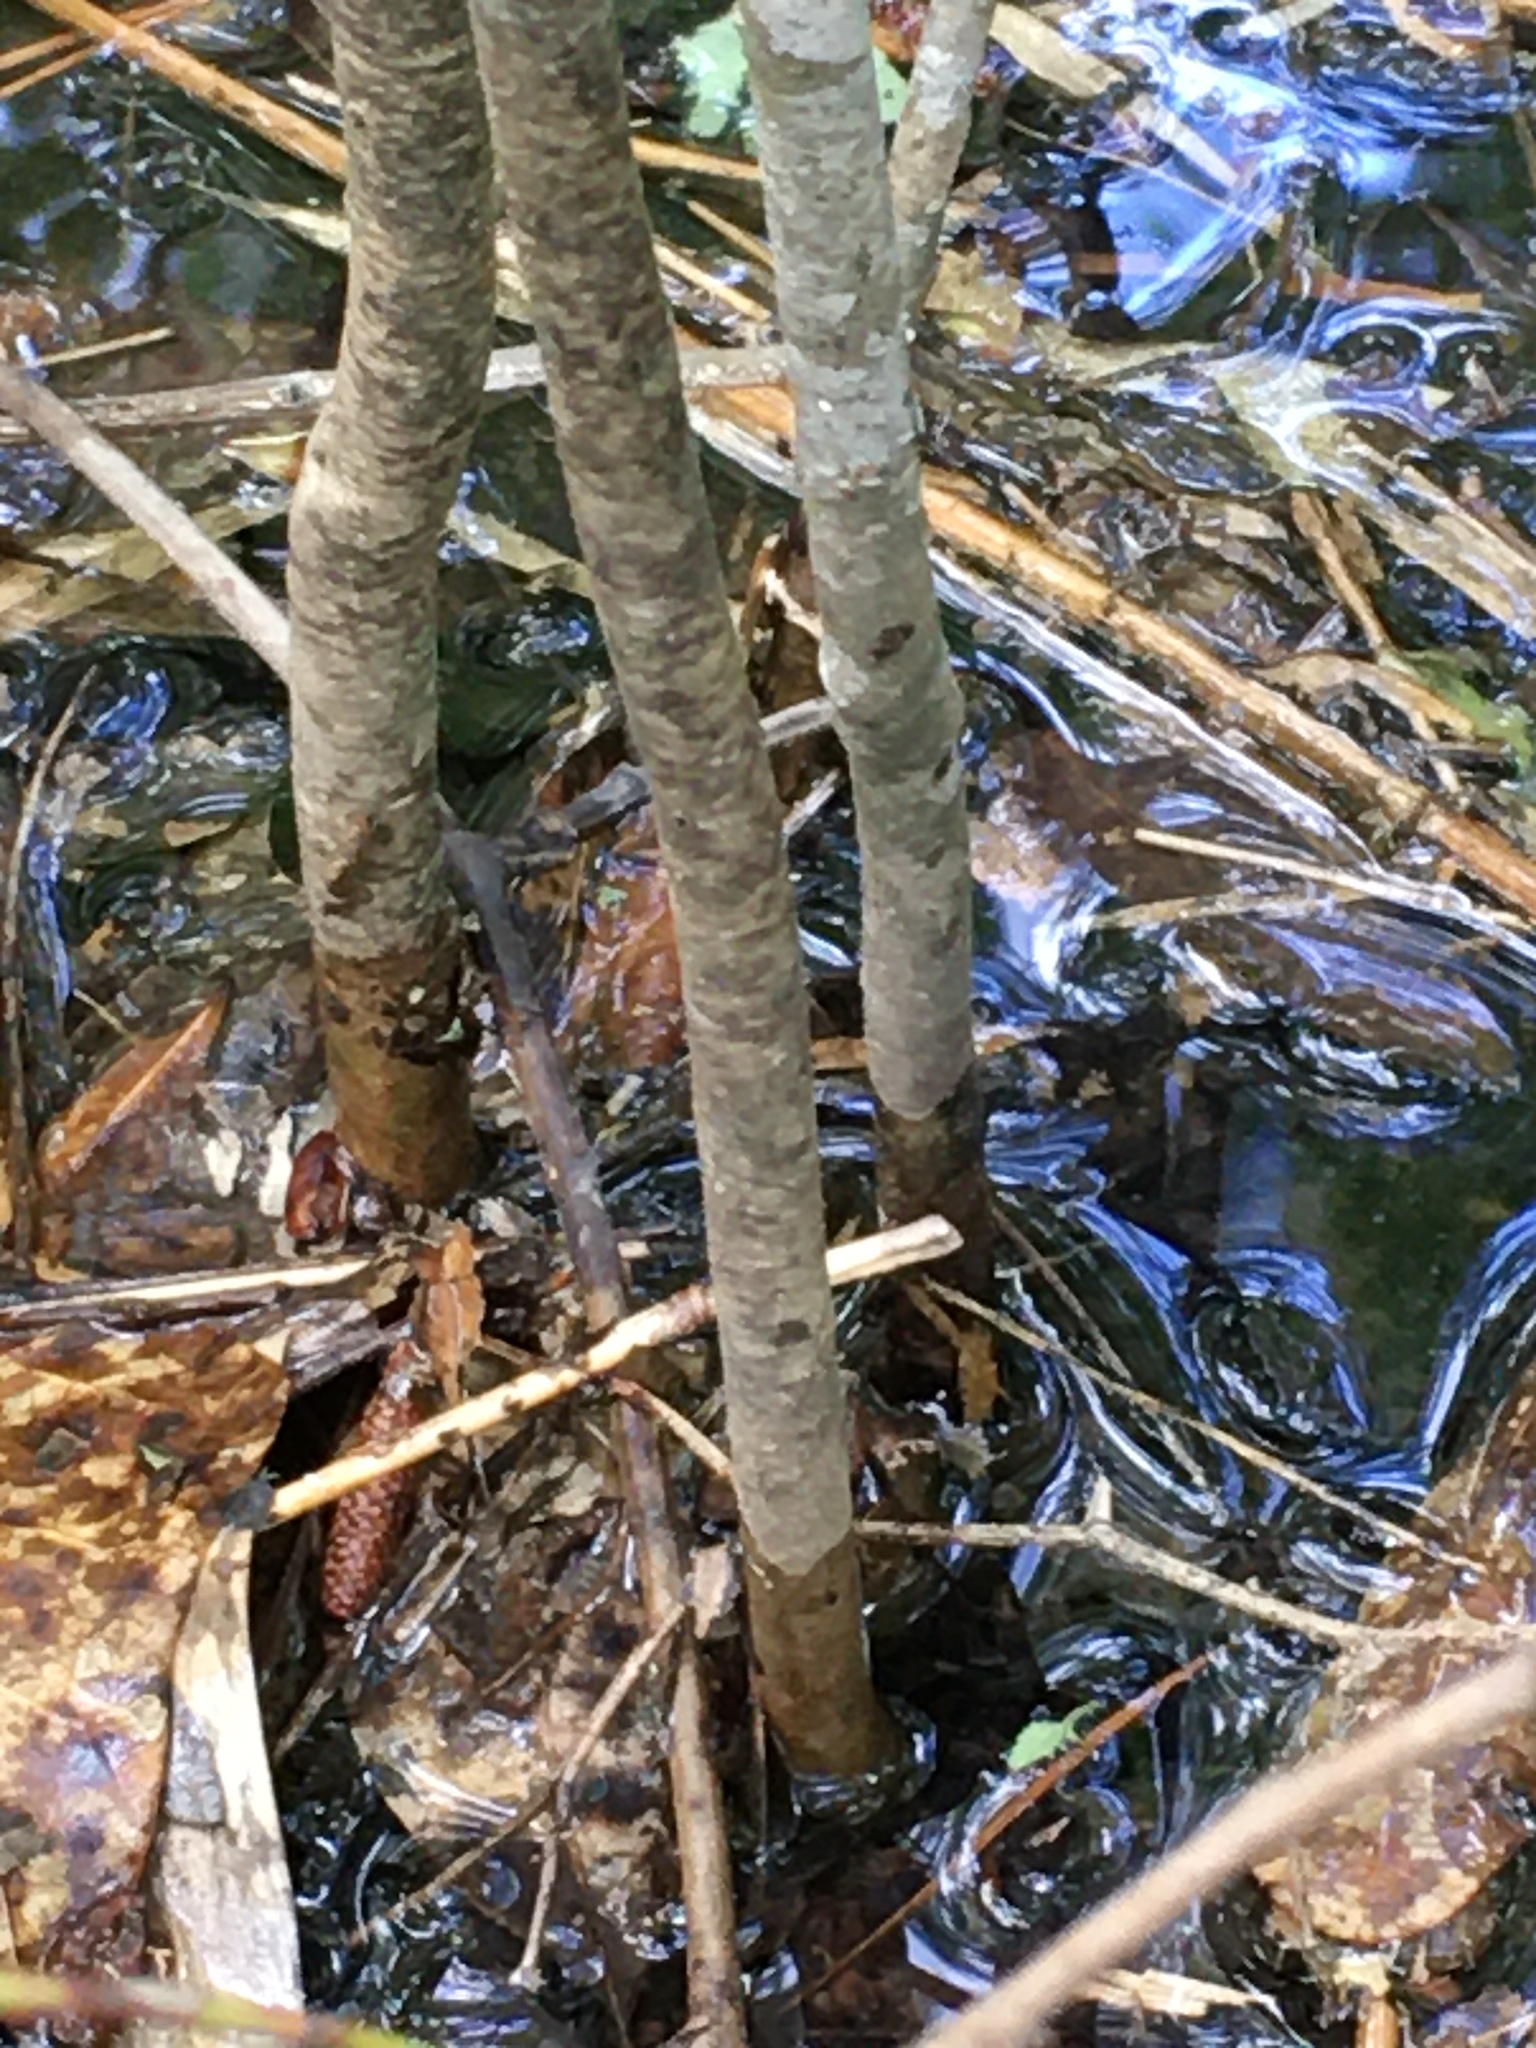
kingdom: Plantae
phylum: Tracheophyta
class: Magnoliopsida
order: Ericales
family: Ericaceae
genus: Eubotrys
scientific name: Eubotrys racemosa
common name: Fetterbush
